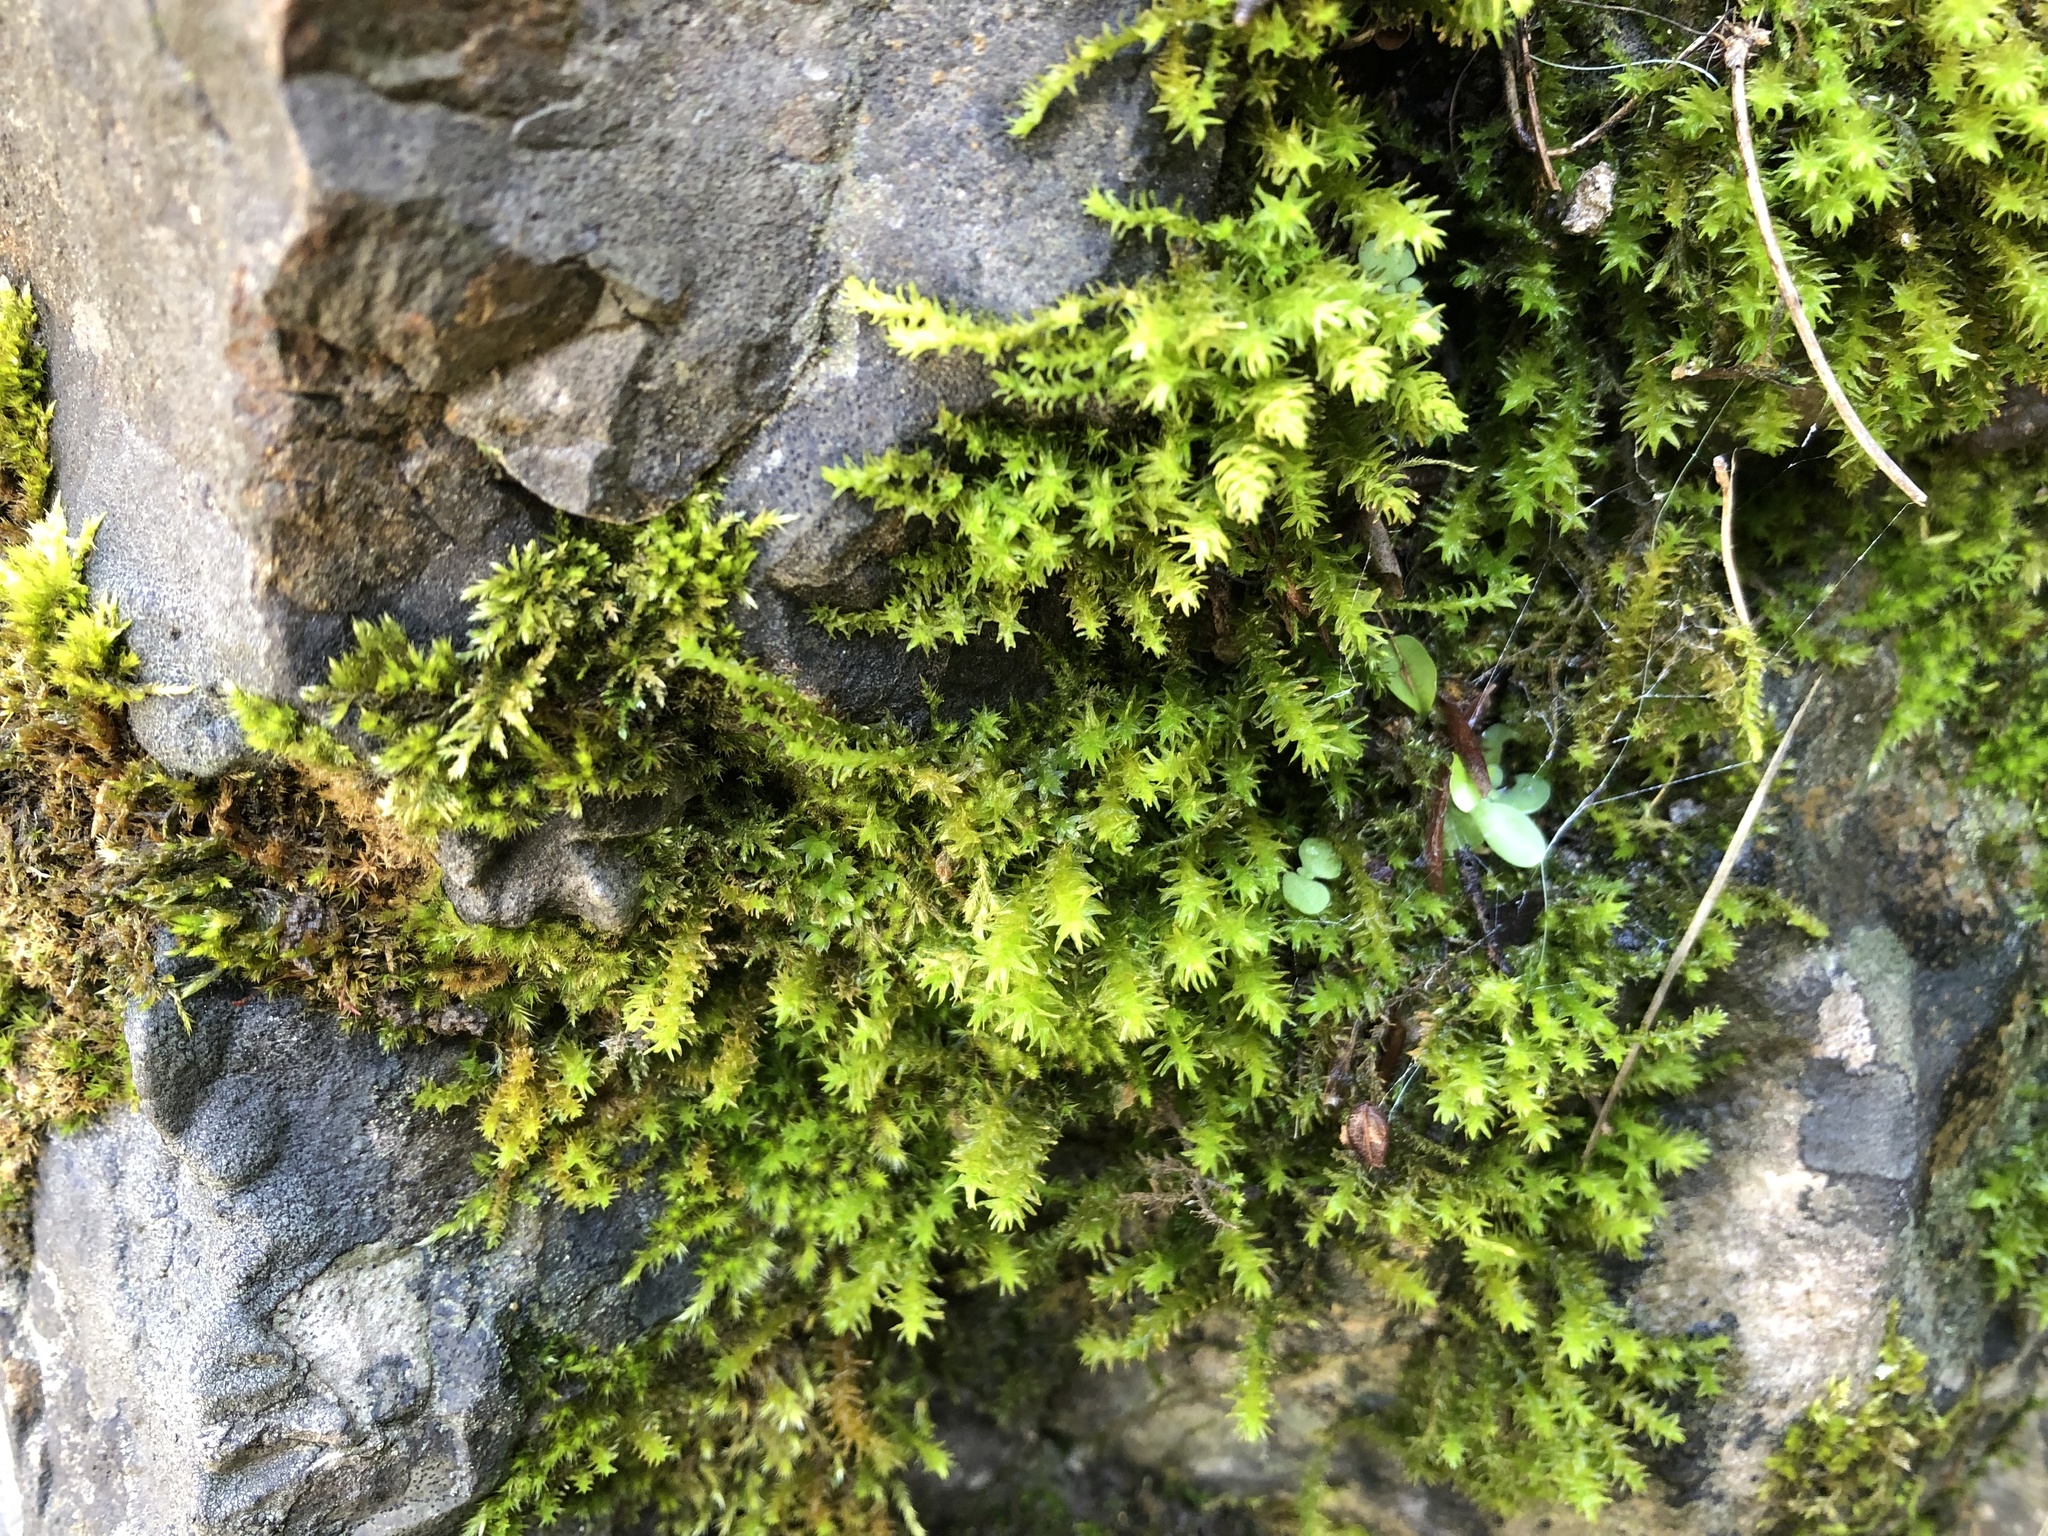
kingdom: Plantae
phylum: Bryophyta
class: Bryopsida
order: Hypnales
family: Anomodontaceae
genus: Anomodon
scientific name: Anomodon viticulosus
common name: Tall anomodon
